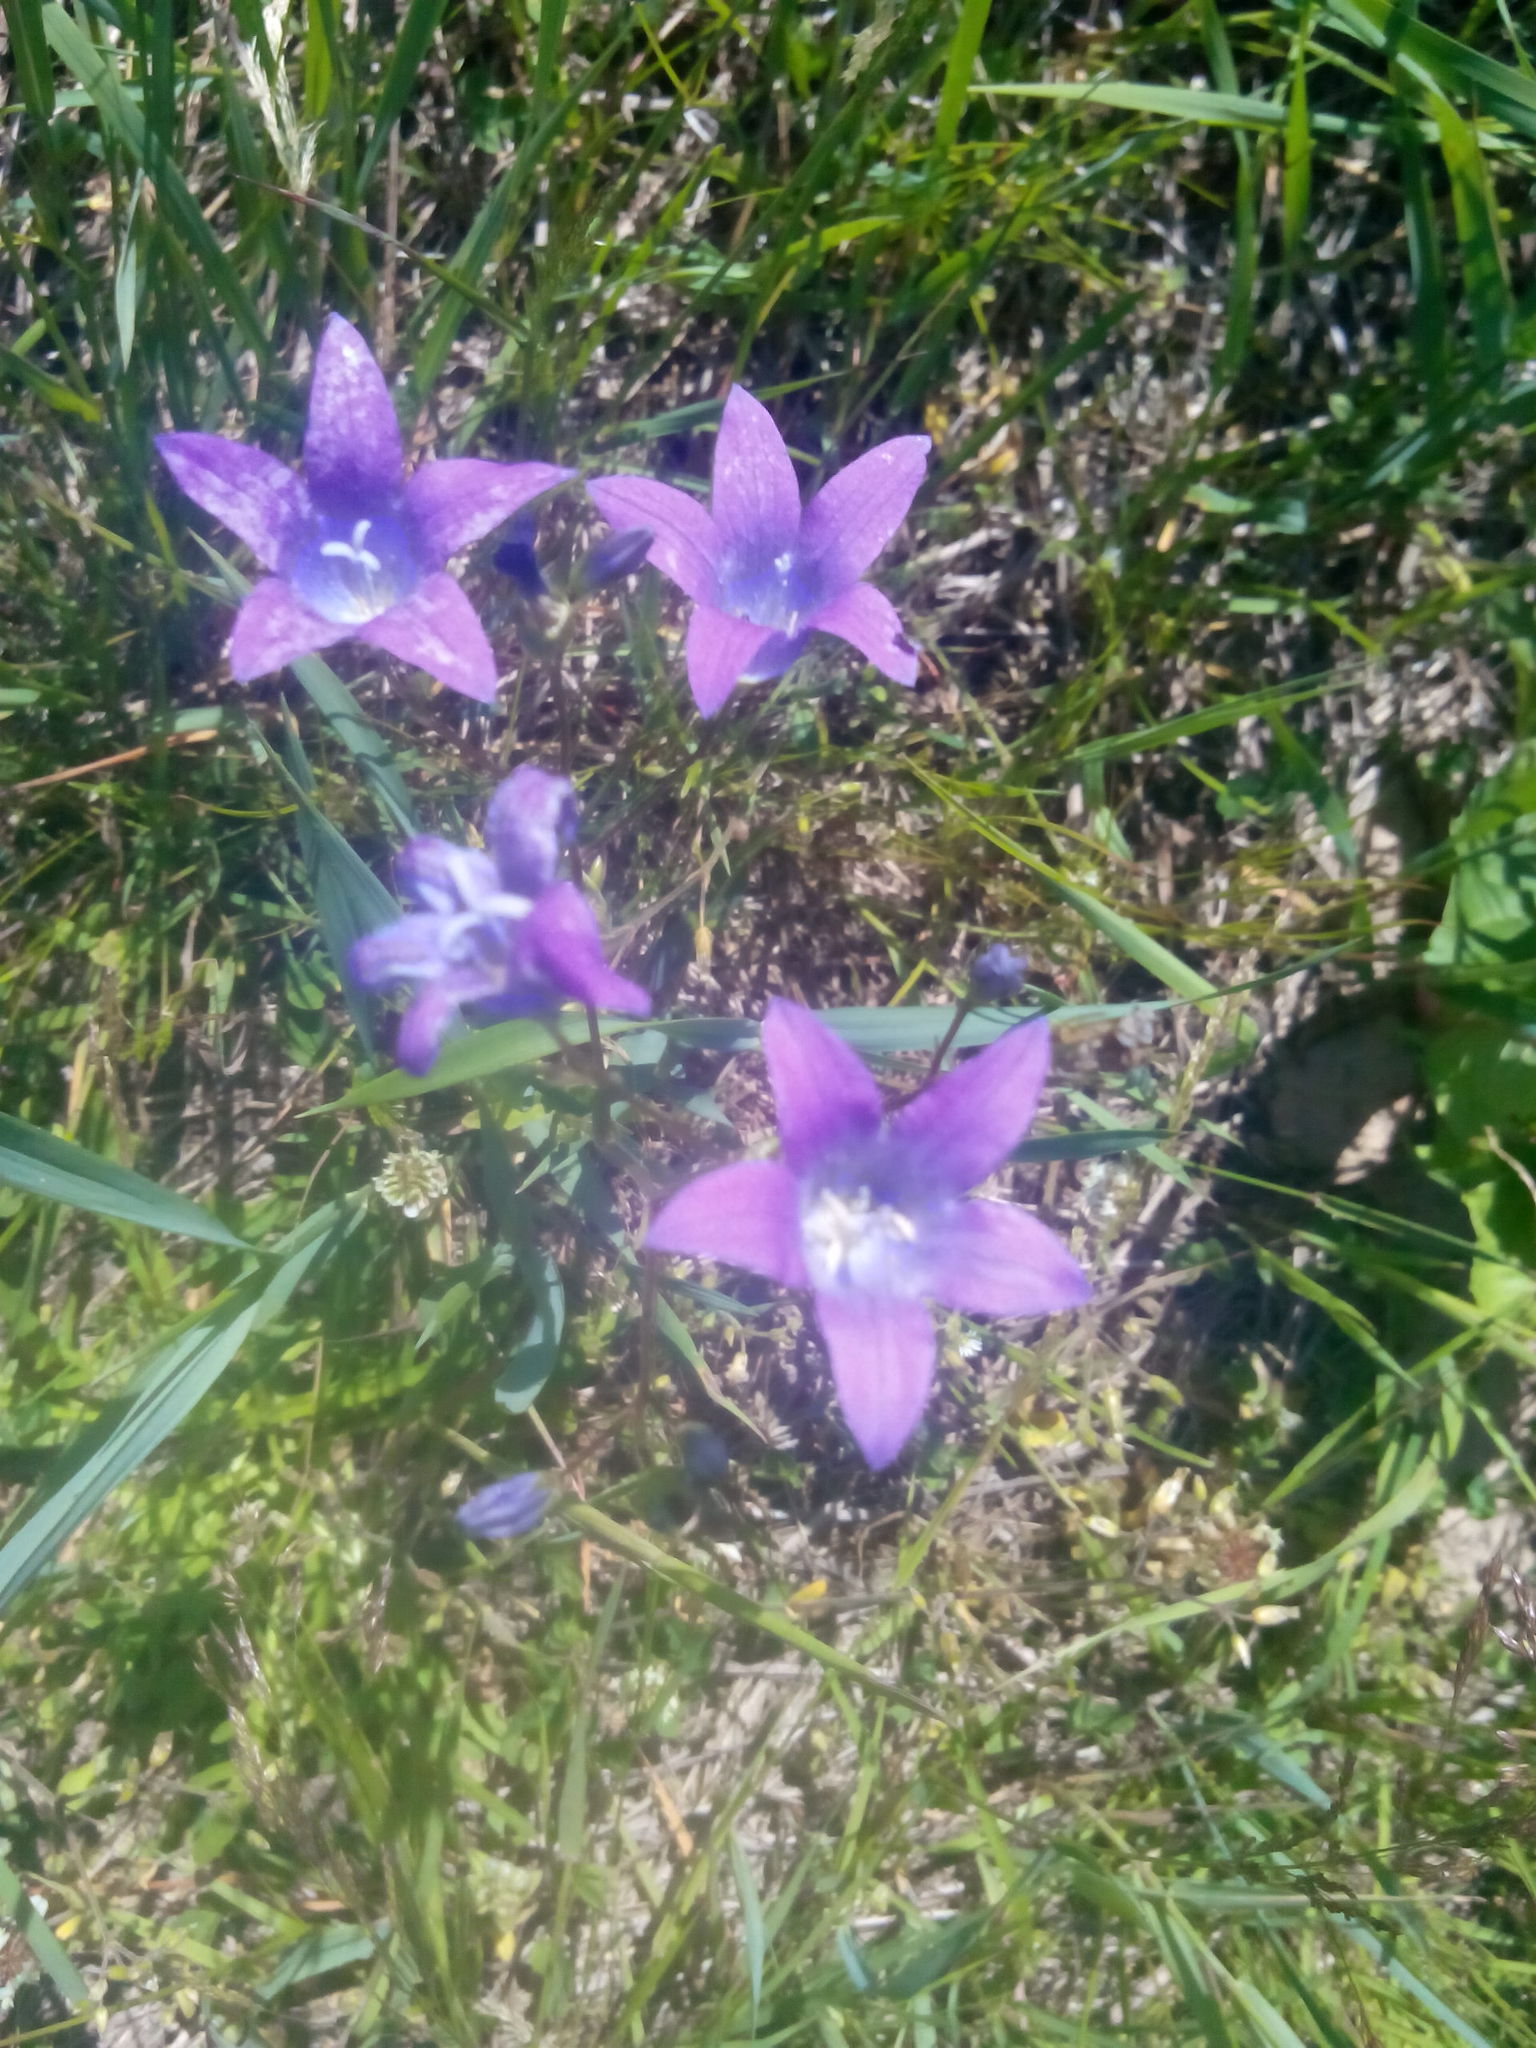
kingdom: Plantae
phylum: Tracheophyta
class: Magnoliopsida
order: Asterales
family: Campanulaceae
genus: Campanula
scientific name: Campanula patula
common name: Spreading bellflower
